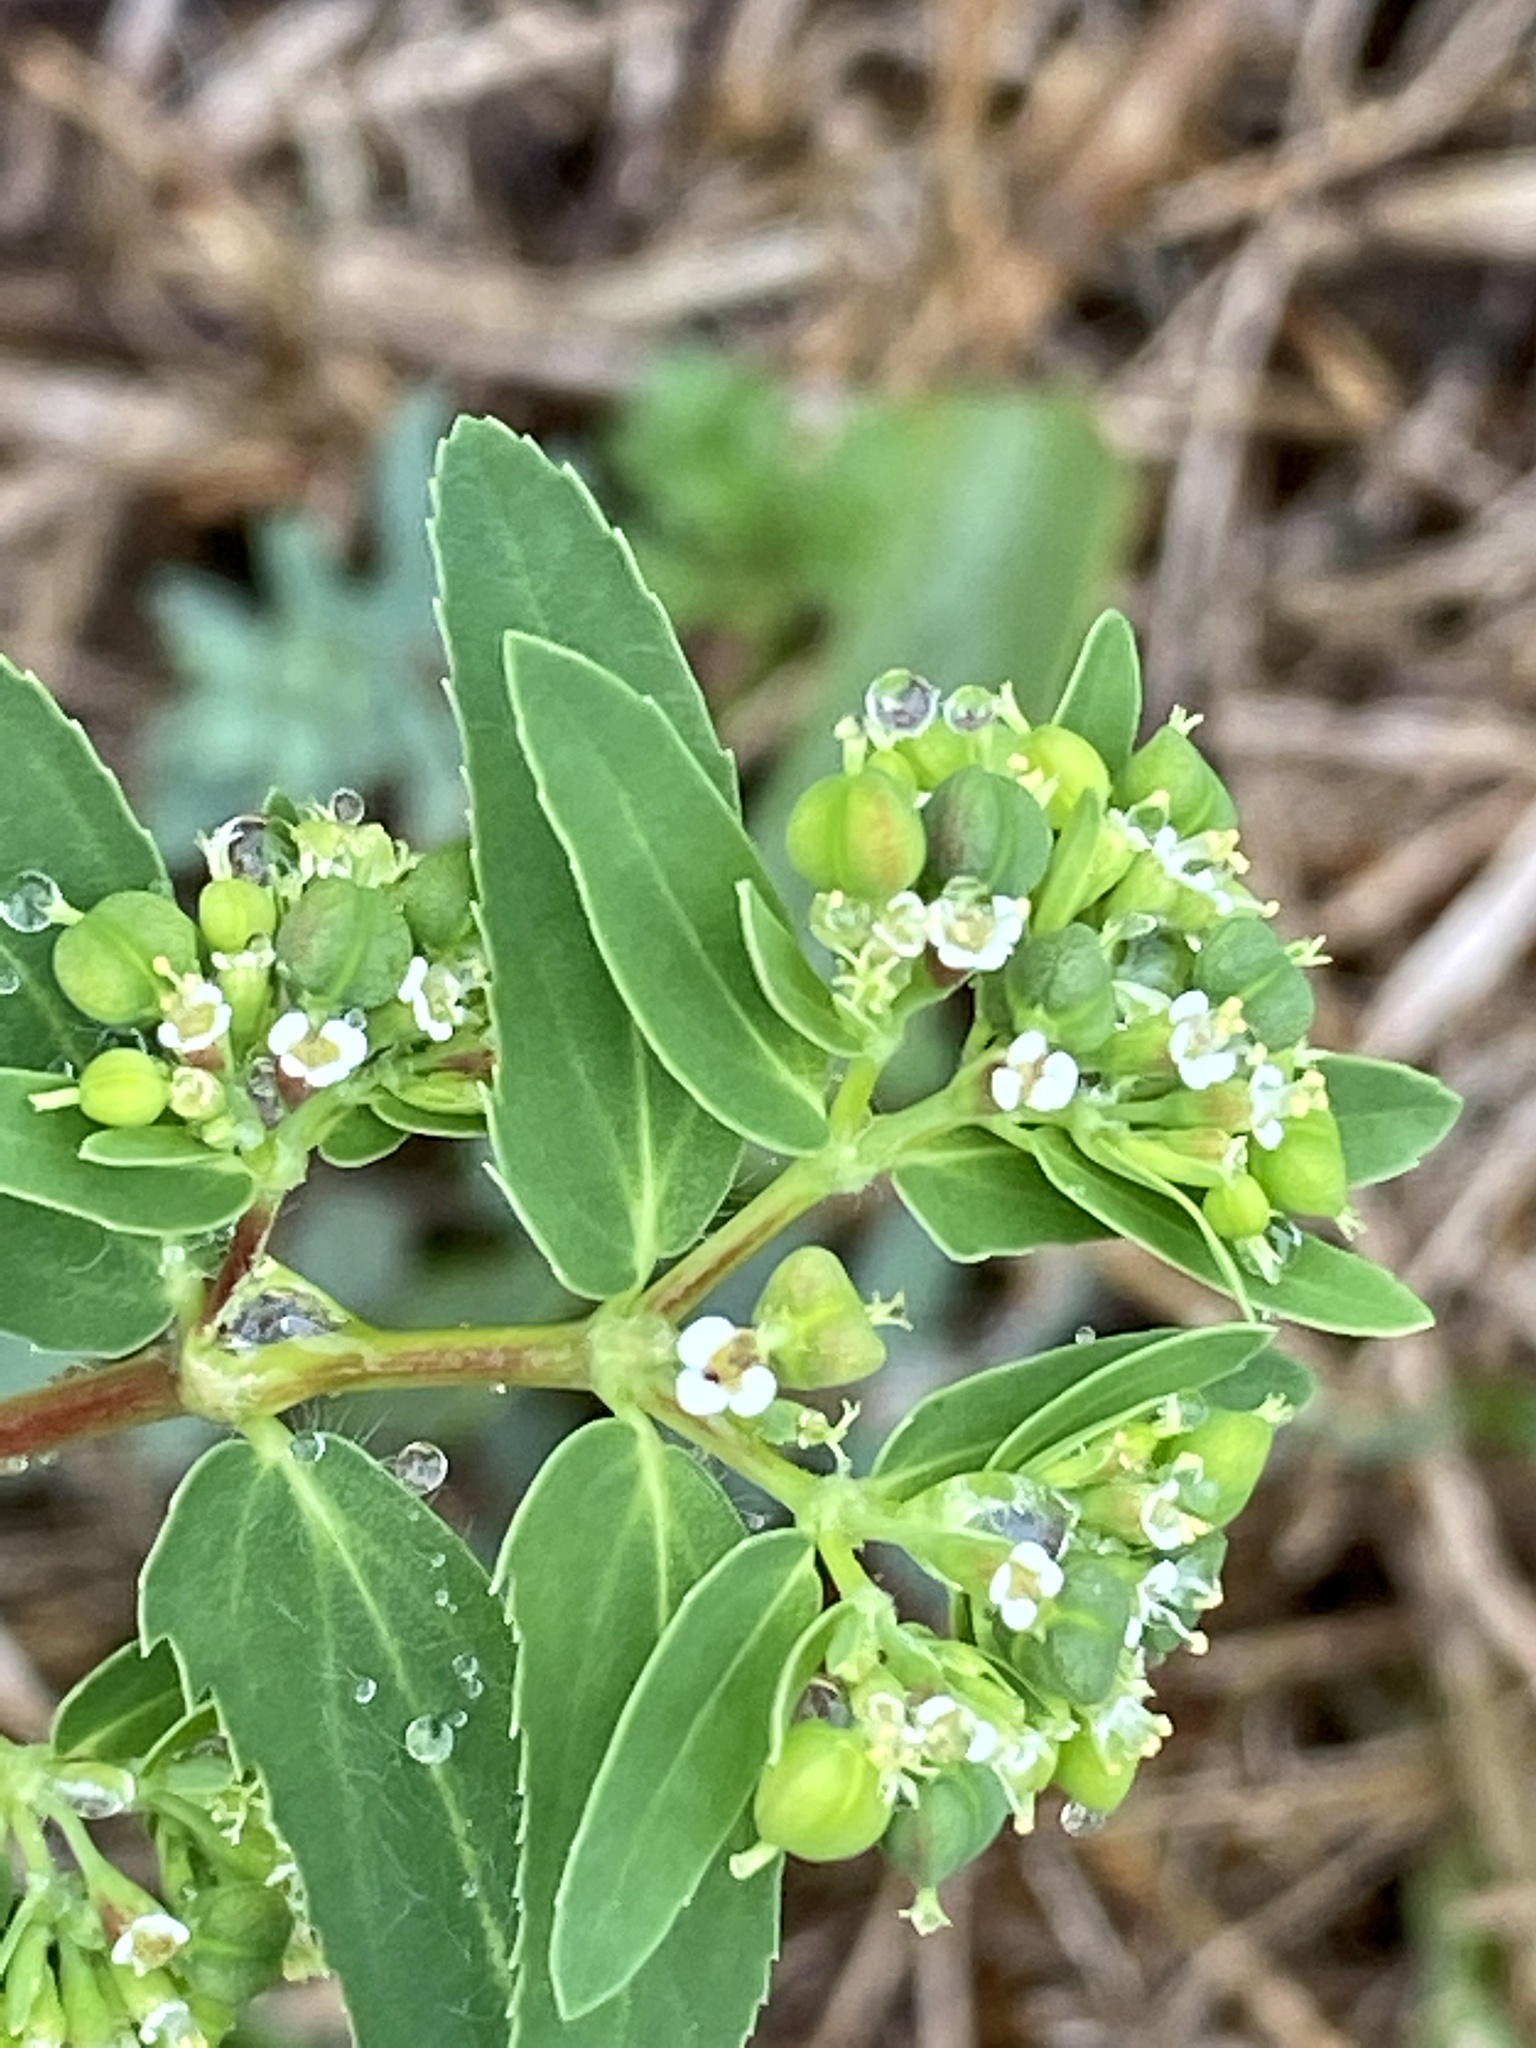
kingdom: Plantae
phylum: Tracheophyta
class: Magnoliopsida
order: Malpighiales
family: Euphorbiaceae
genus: Euphorbia
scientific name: Euphorbia nutans
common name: Eyebane
